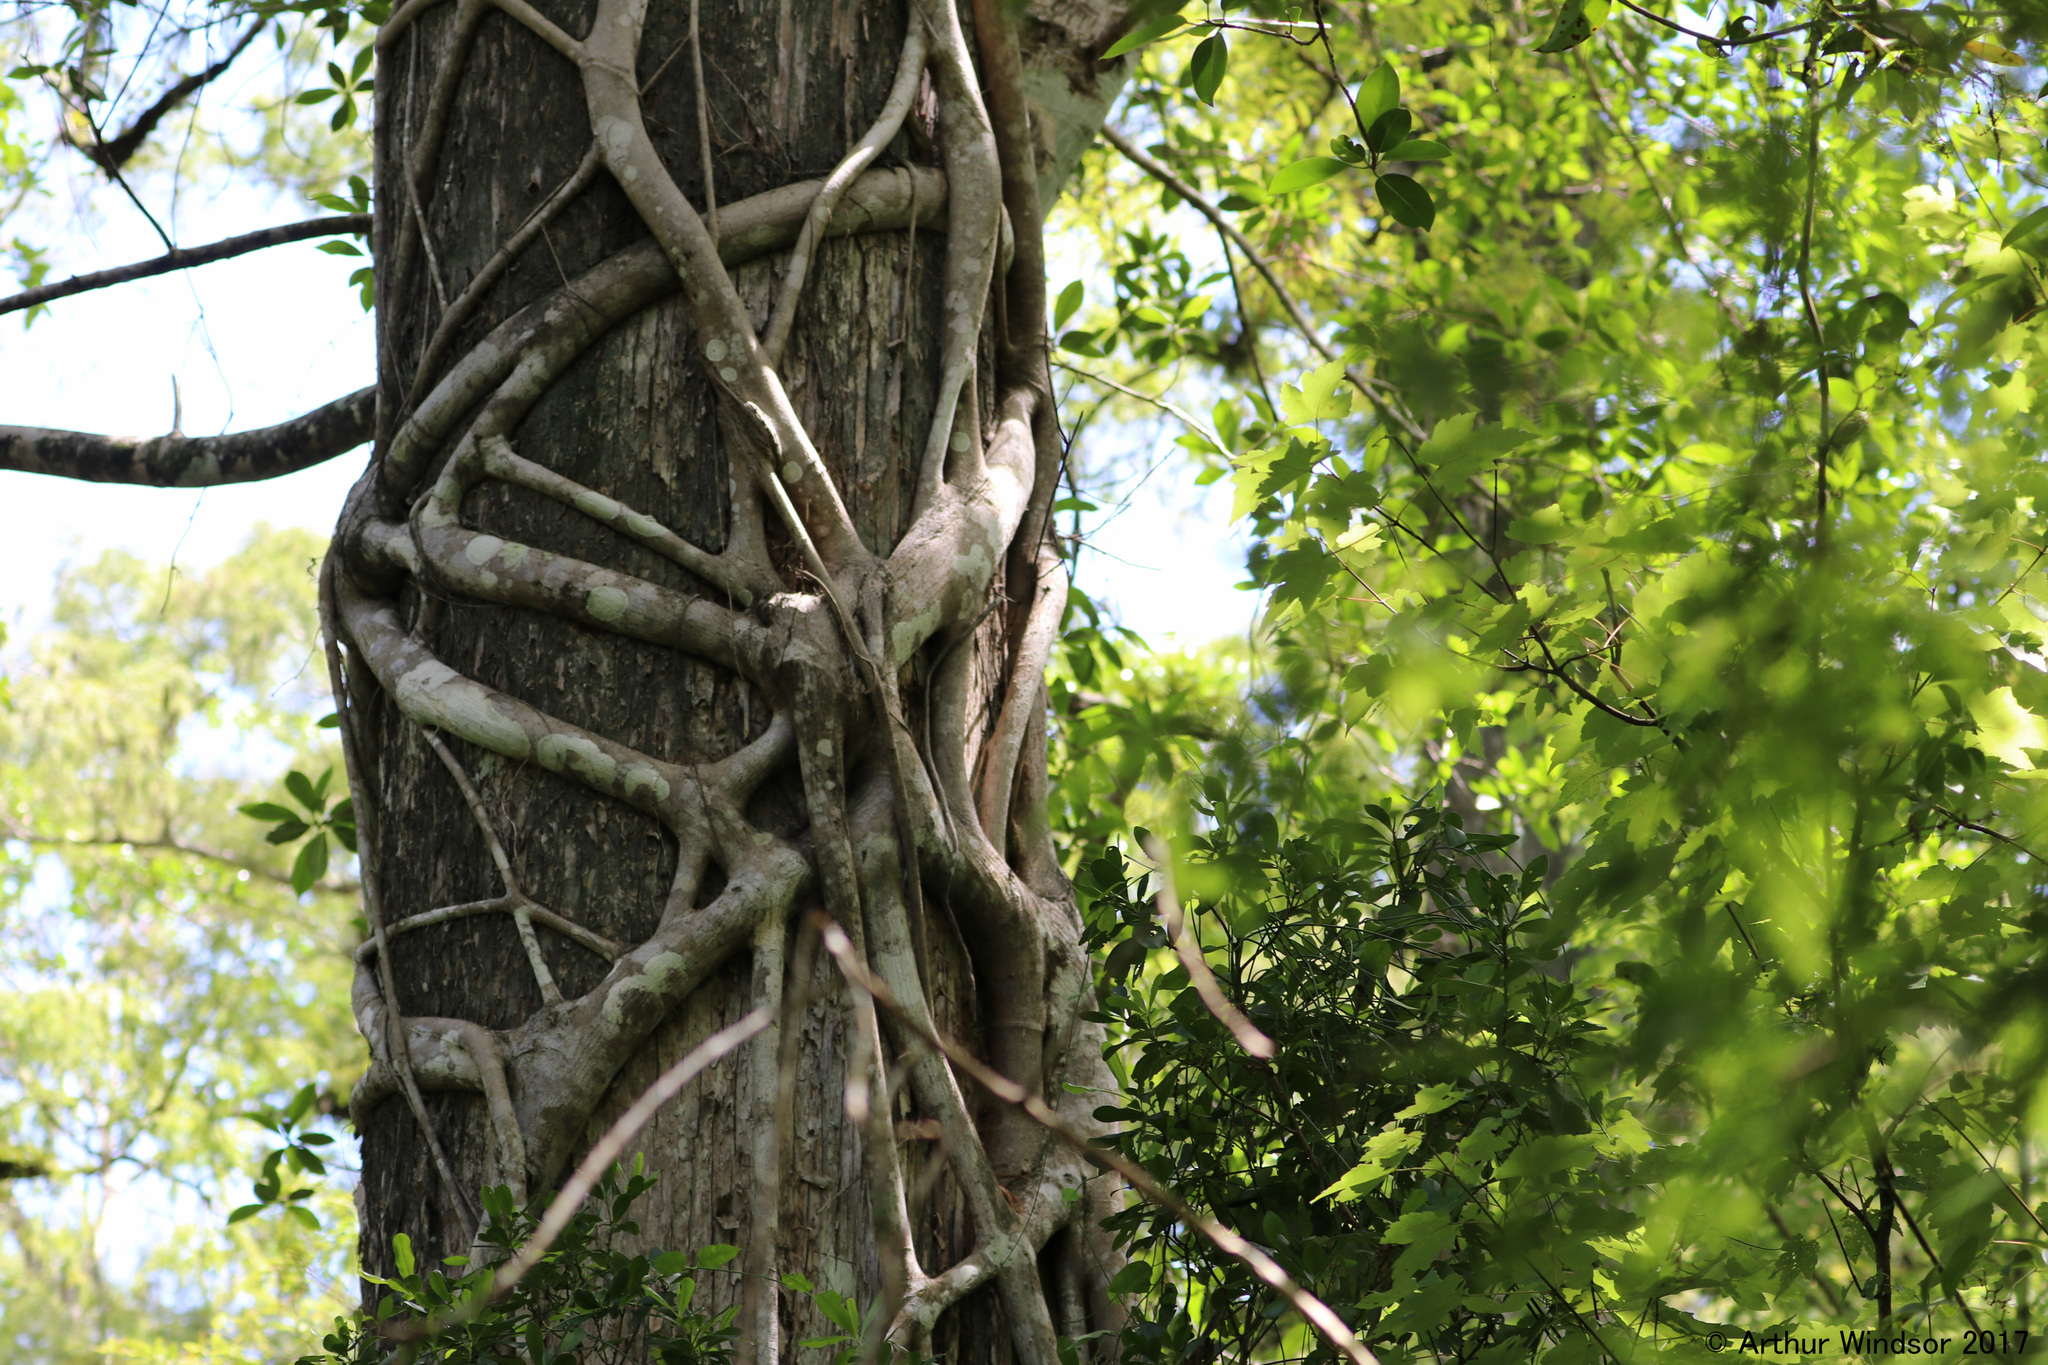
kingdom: Plantae
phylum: Tracheophyta
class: Magnoliopsida
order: Rosales
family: Moraceae
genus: Ficus
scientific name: Ficus aurea
